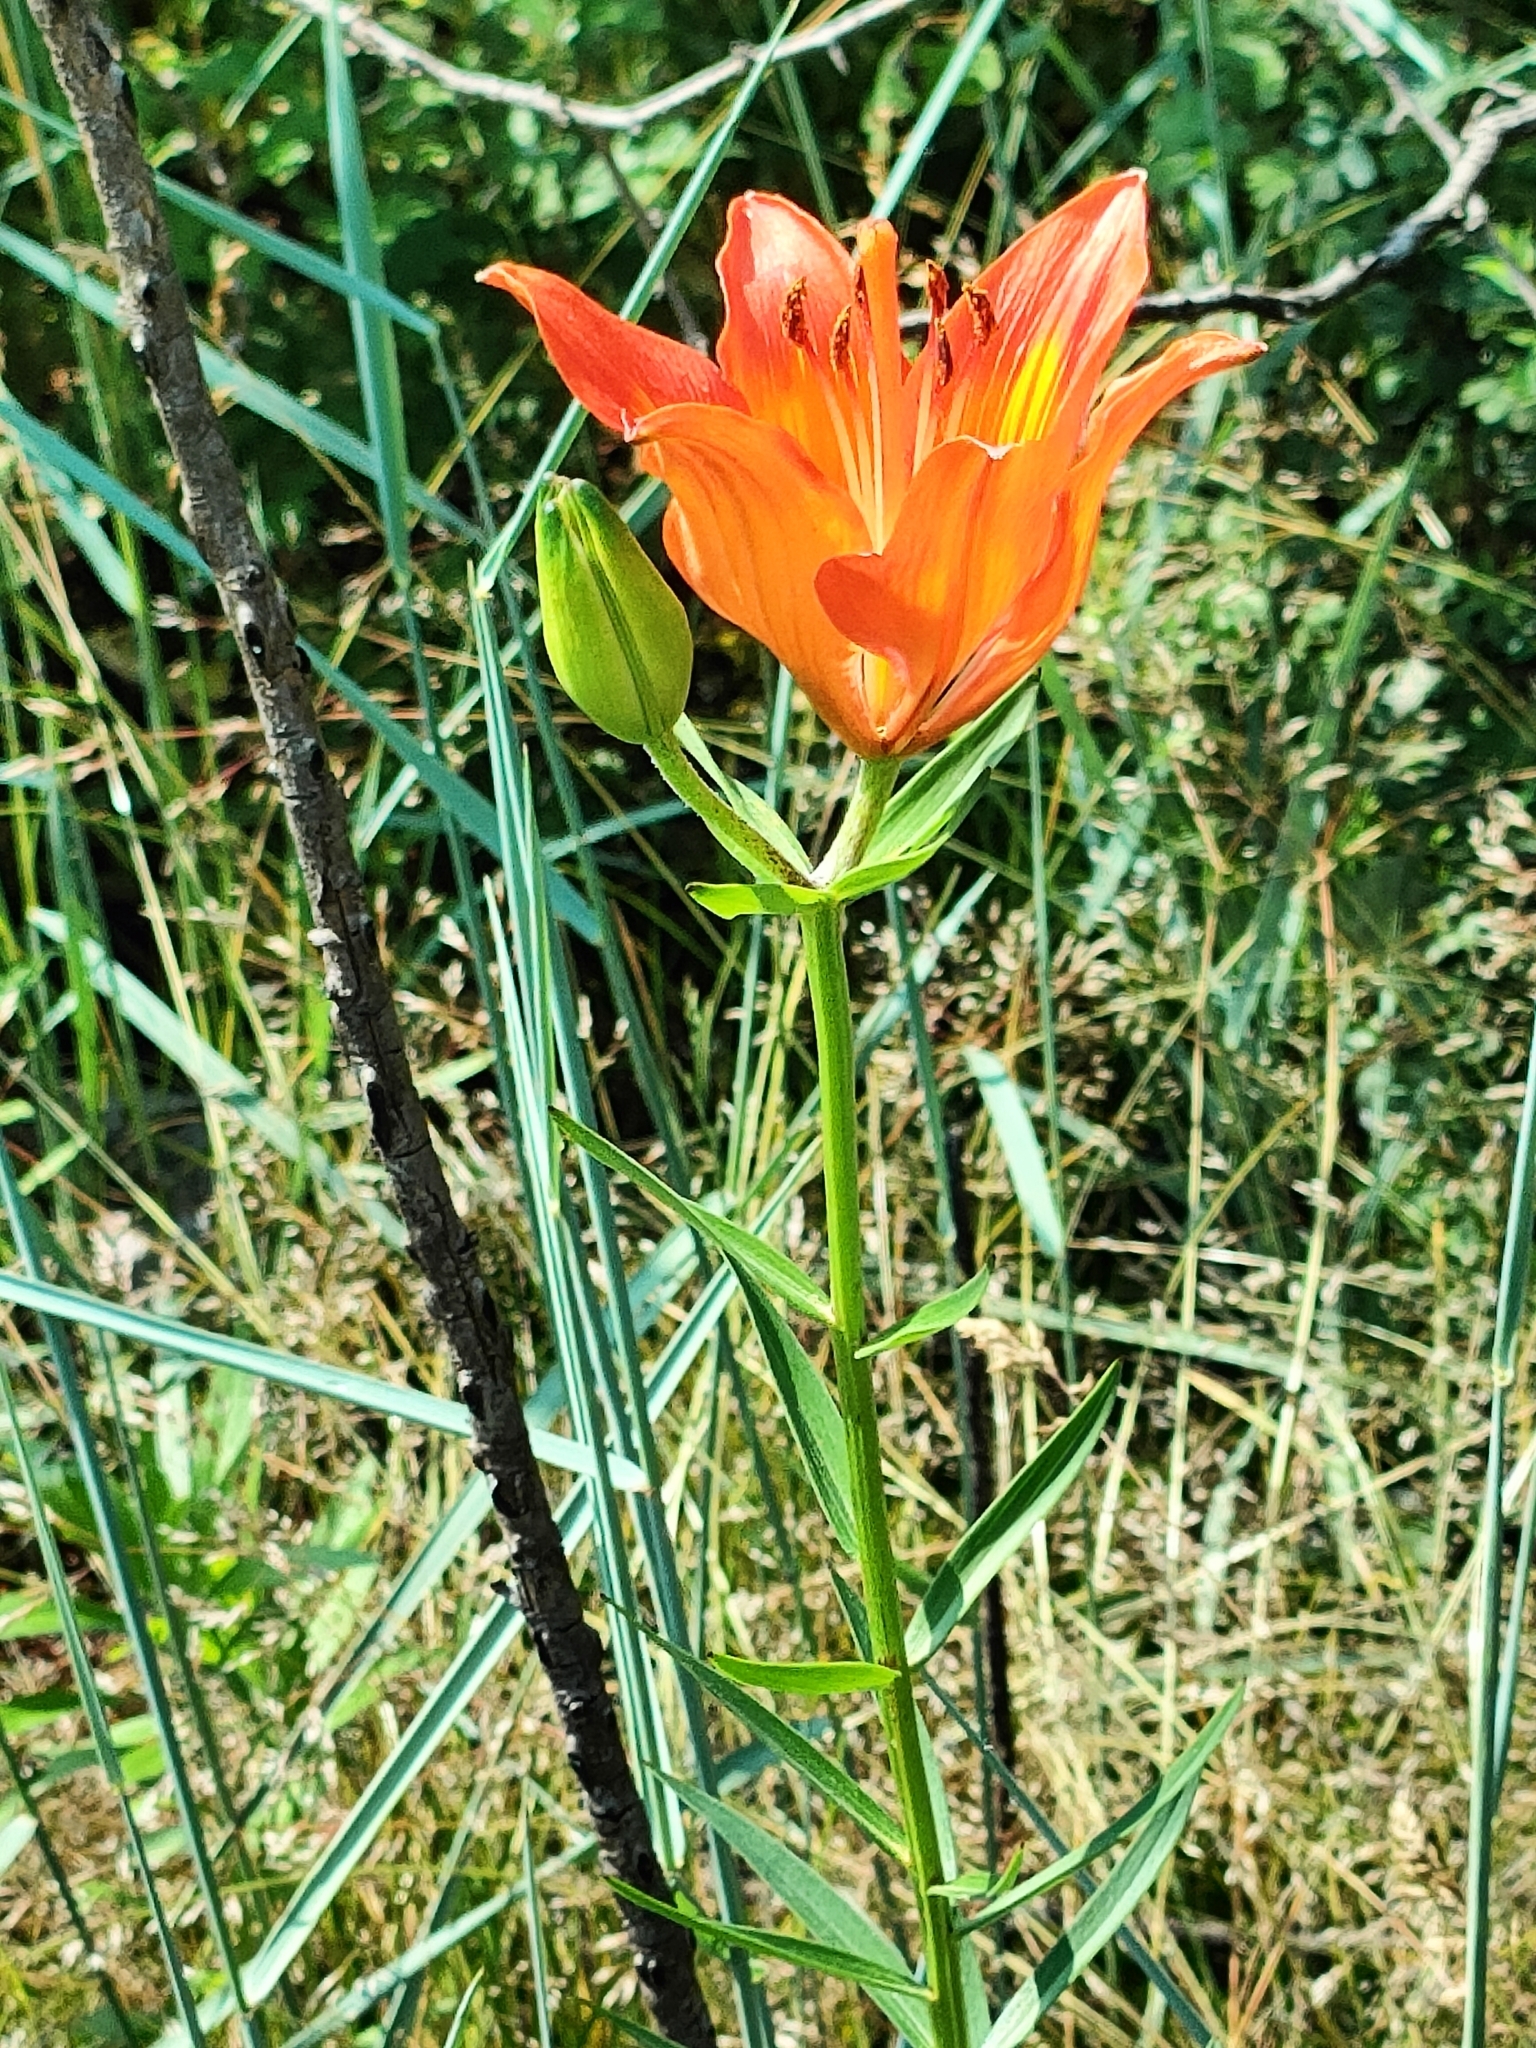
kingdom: Plantae
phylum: Tracheophyta
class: Liliopsida
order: Liliales
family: Liliaceae
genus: Lilium
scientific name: Lilium bulbiferum
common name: Orange lily
